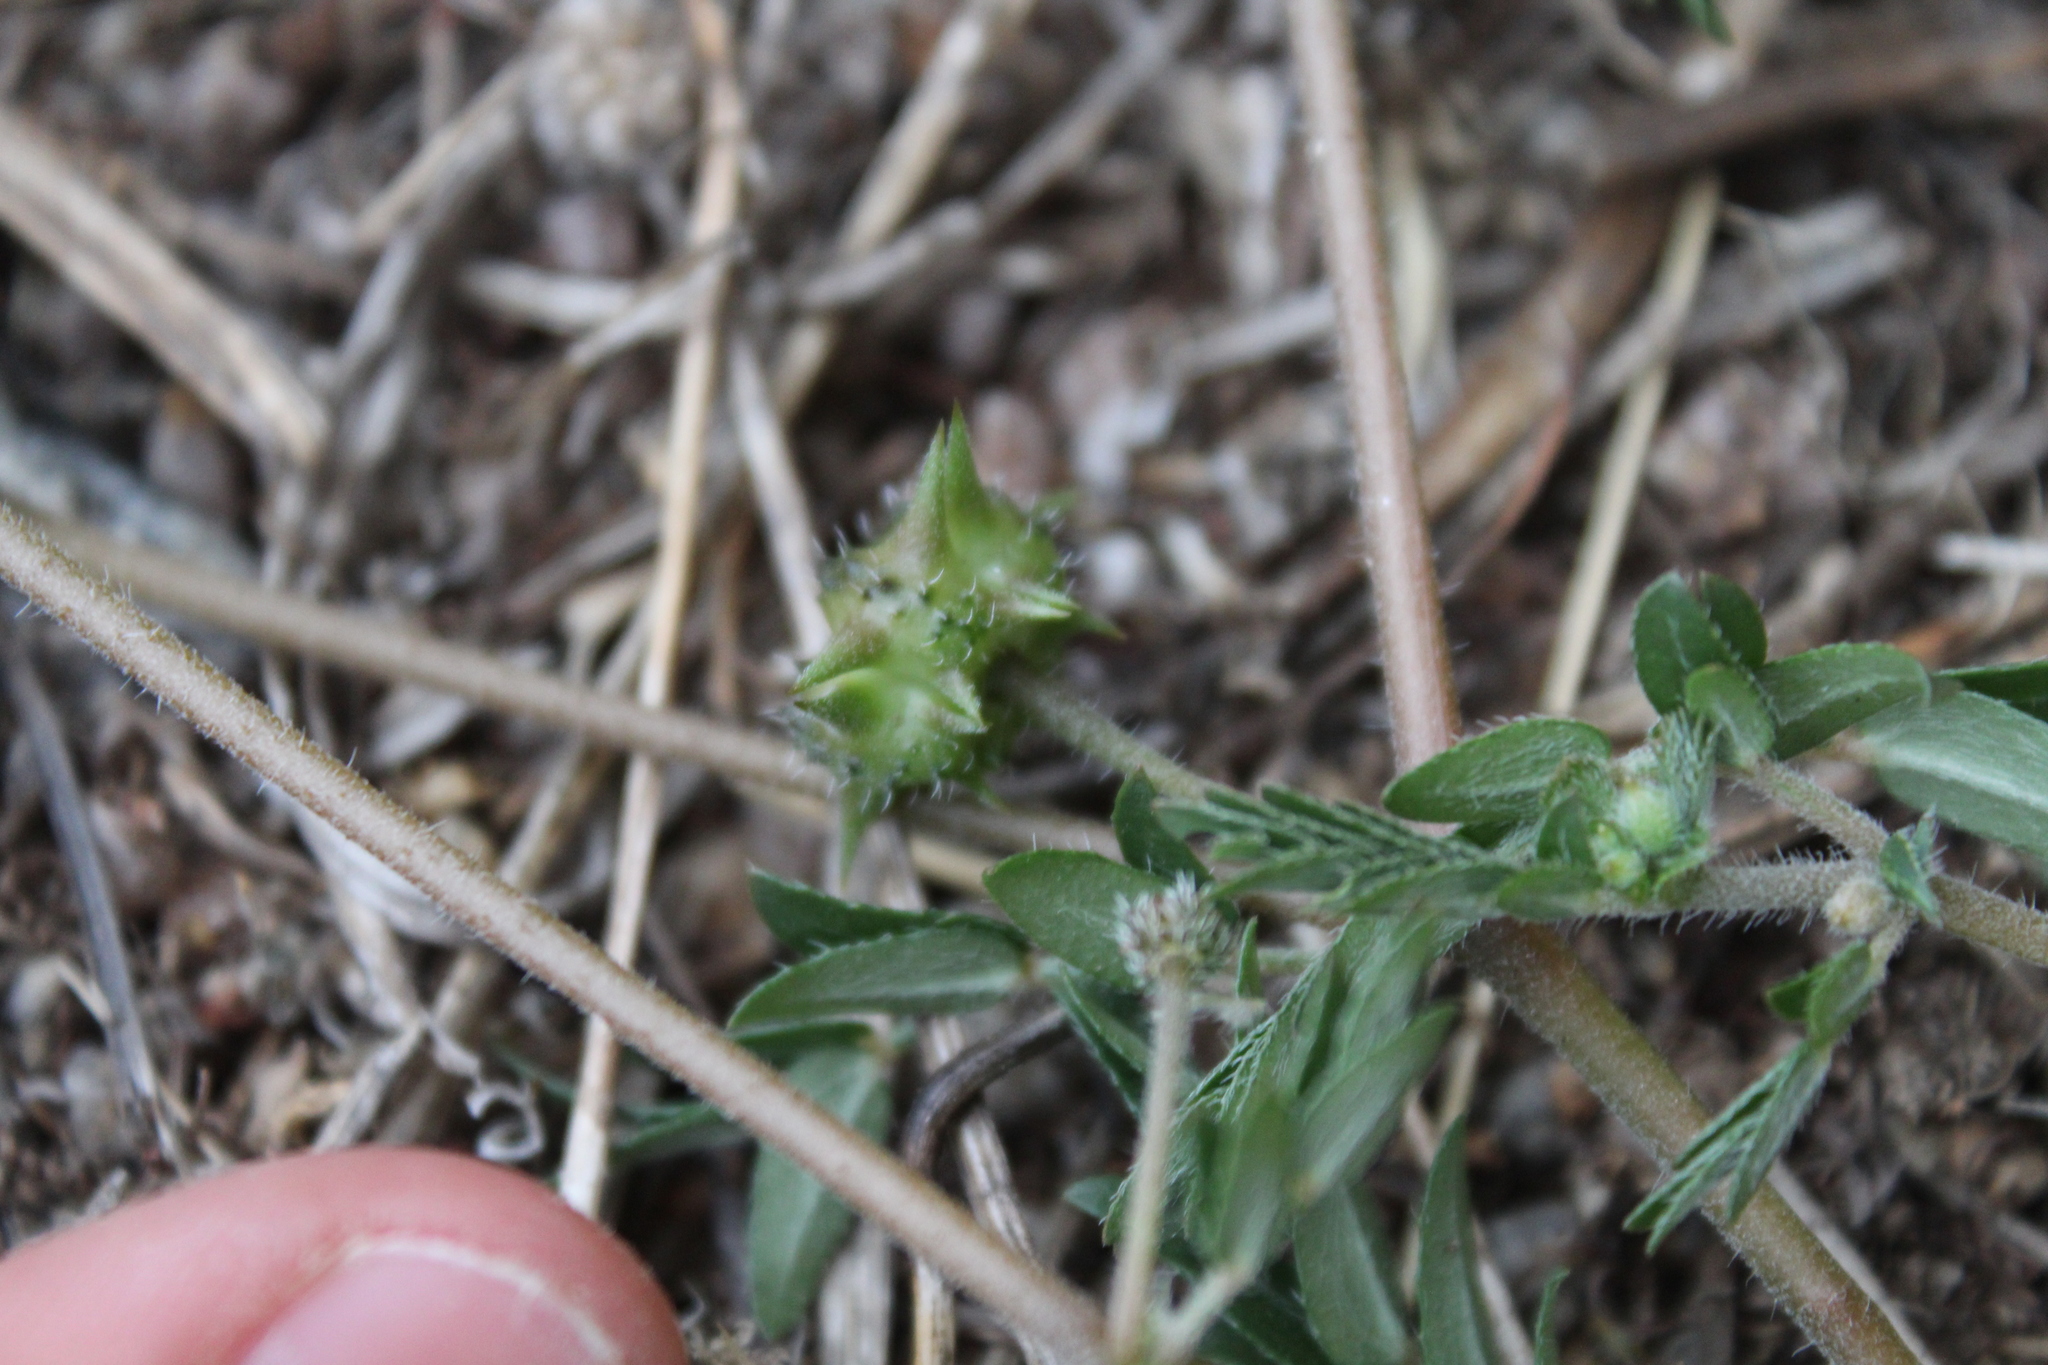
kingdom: Plantae
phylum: Tracheophyta
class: Magnoliopsida
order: Zygophyllales
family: Zygophyllaceae
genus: Tribulus
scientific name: Tribulus terrestris
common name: Puncturevine
